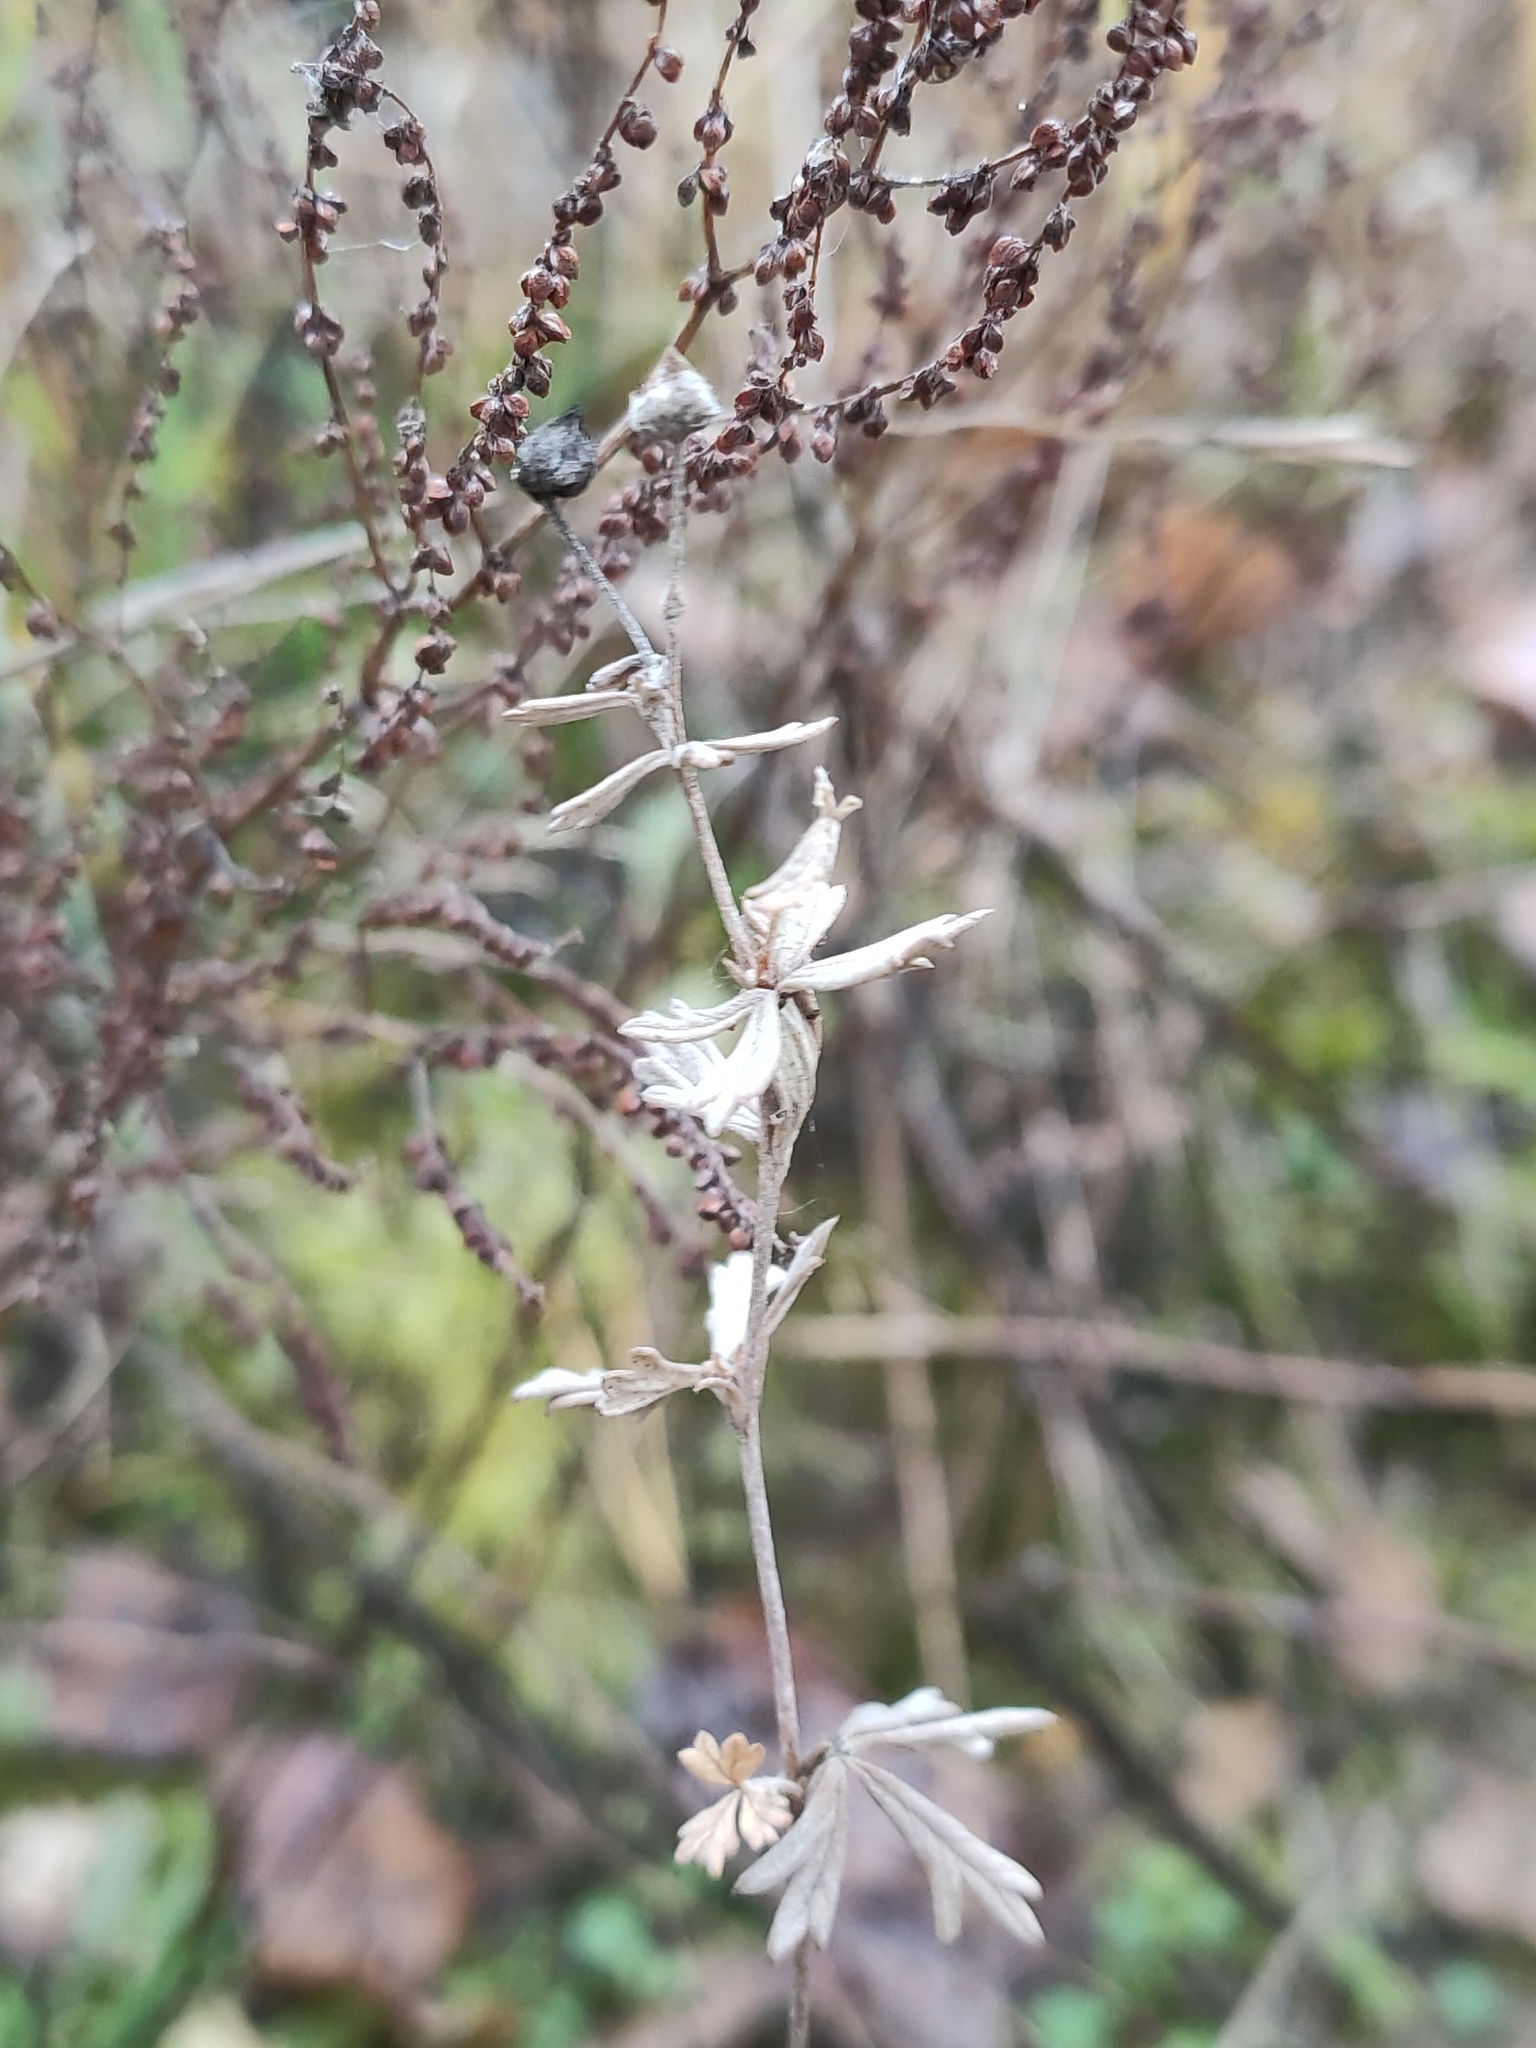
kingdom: Plantae
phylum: Tracheophyta
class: Magnoliopsida
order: Rosales
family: Rosaceae
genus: Potentilla
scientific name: Potentilla argentea
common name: Hoary cinquefoil
